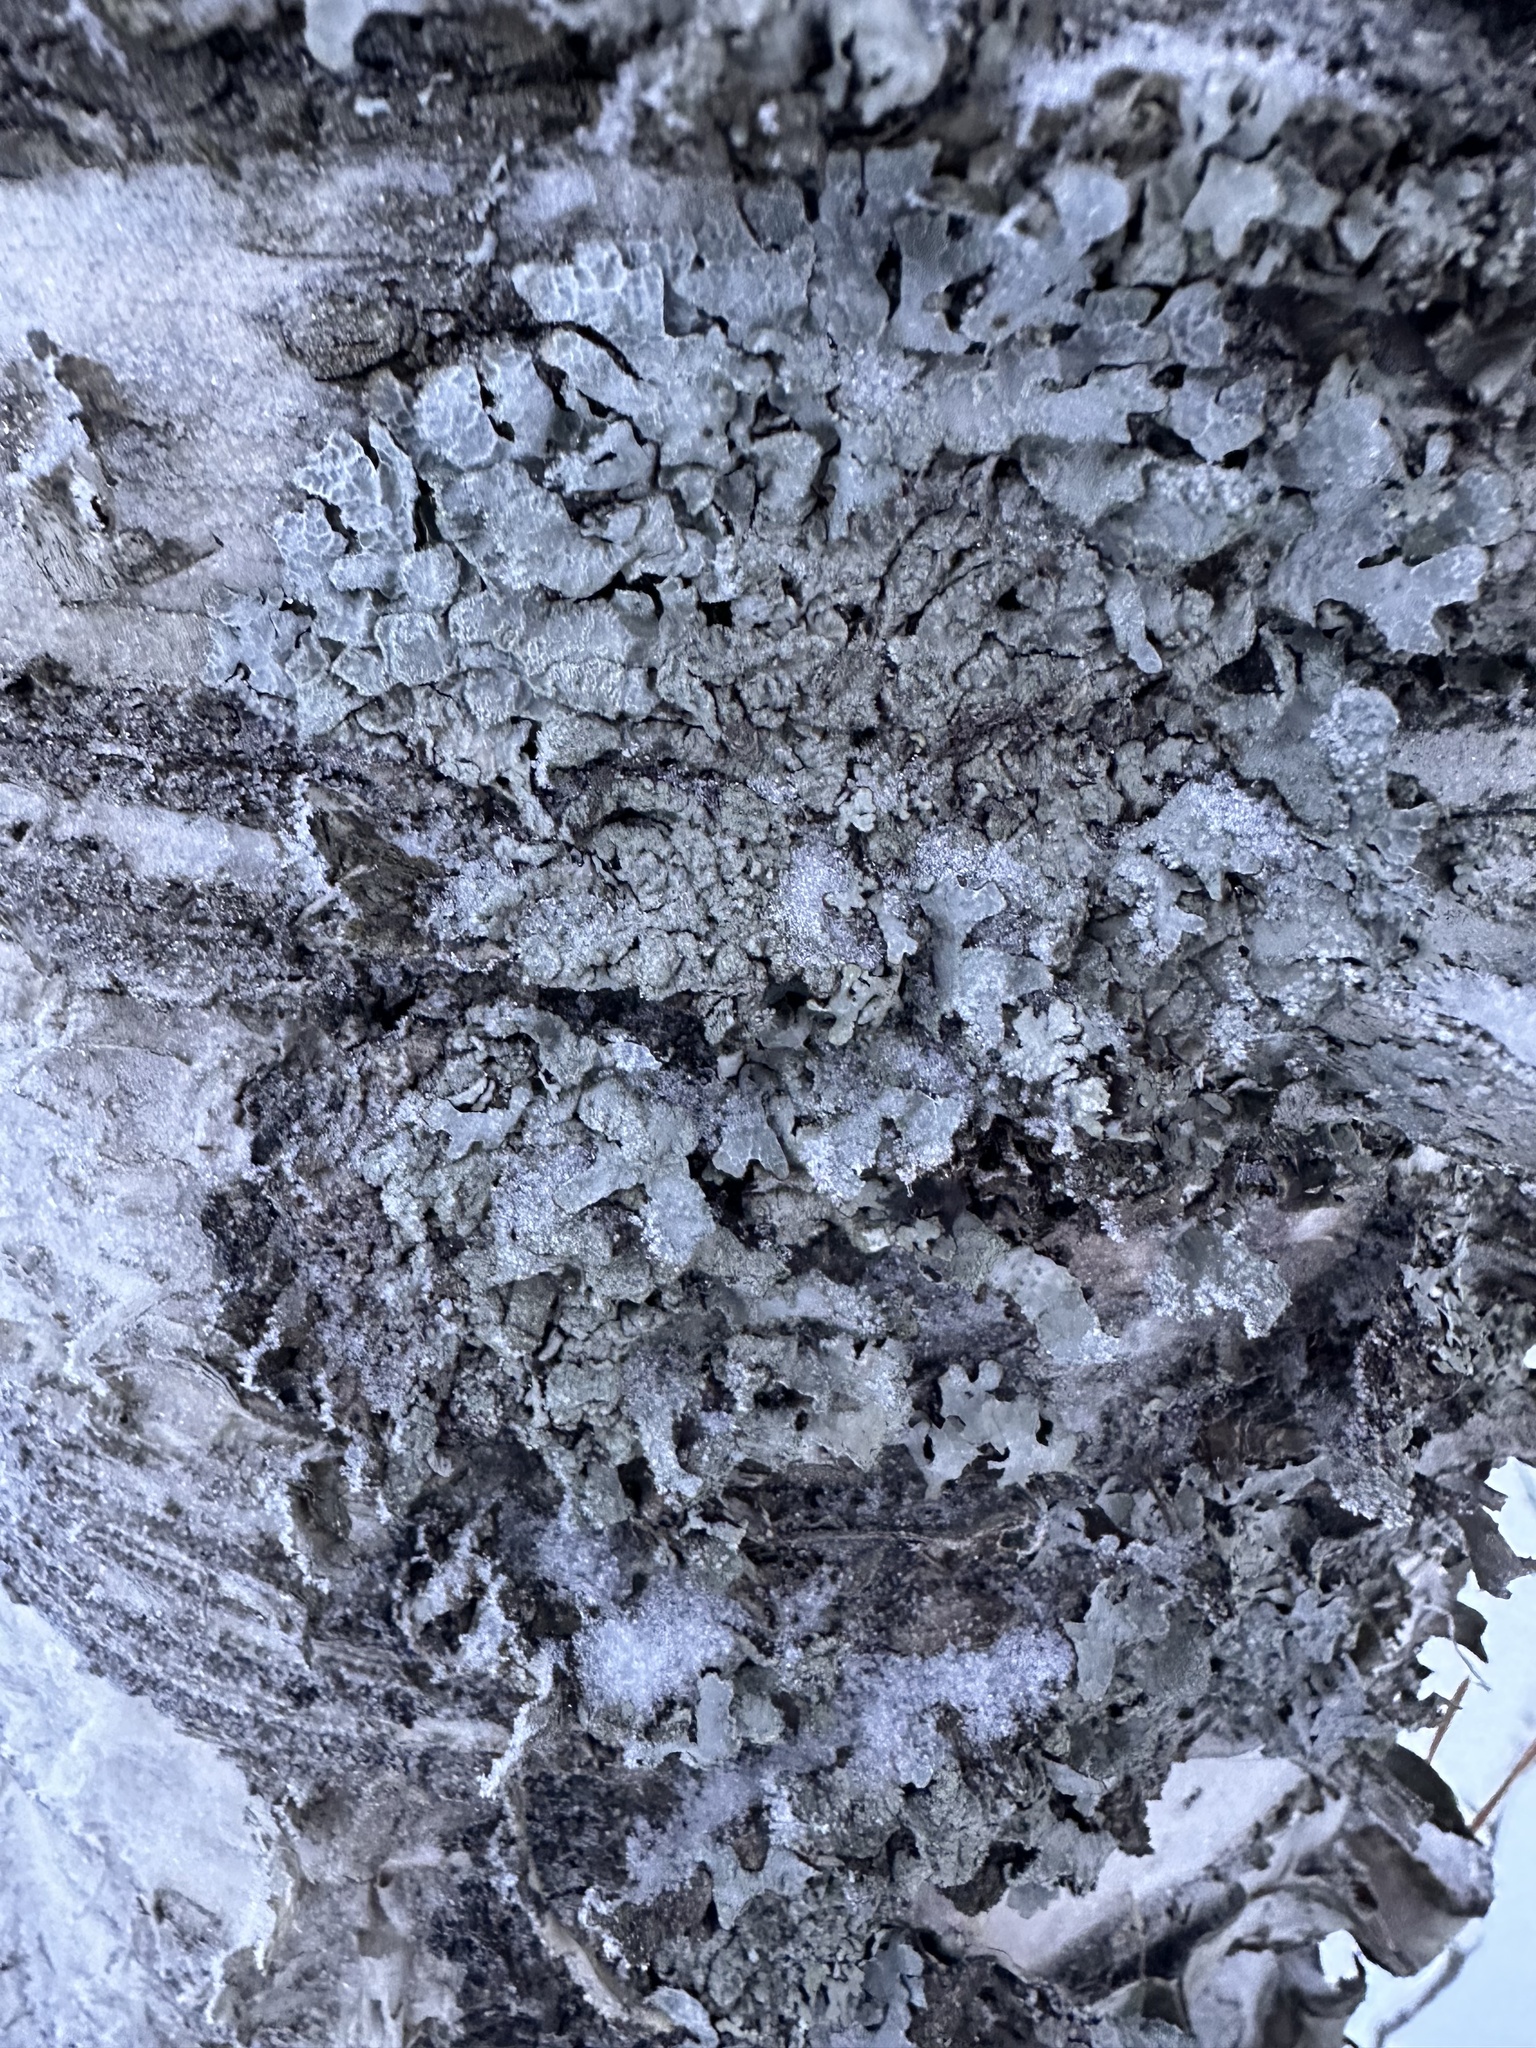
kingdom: Fungi
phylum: Ascomycota
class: Lecanoromycetes
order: Lecanorales
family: Parmeliaceae
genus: Parmelia
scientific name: Parmelia sulcata
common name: Netted shield lichen
